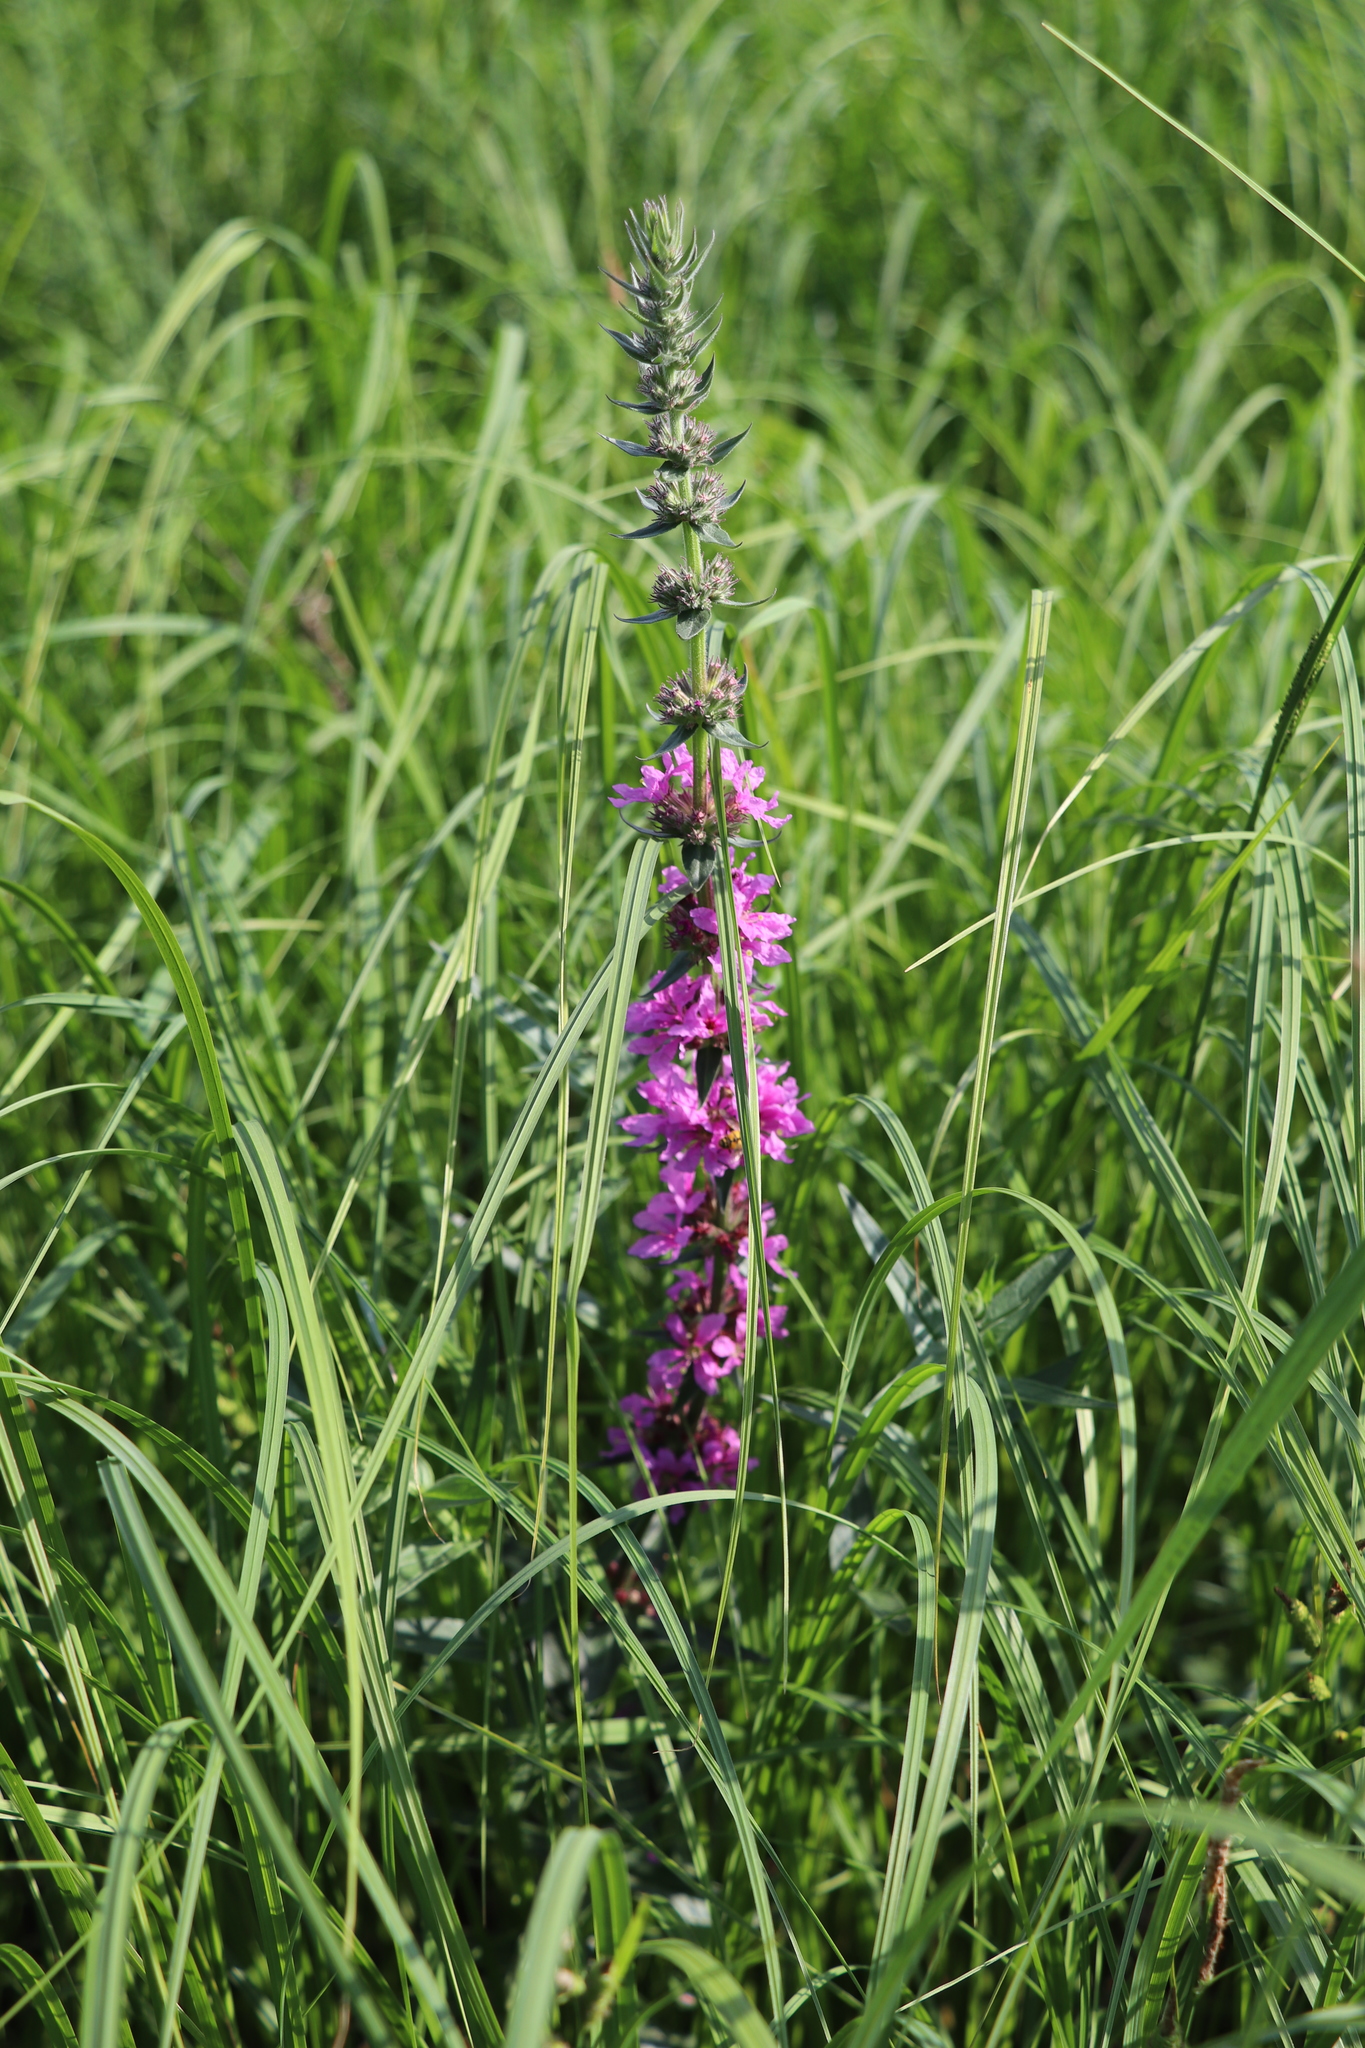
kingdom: Plantae
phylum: Tracheophyta
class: Magnoliopsida
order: Myrtales
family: Lythraceae
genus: Lythrum
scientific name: Lythrum salicaria
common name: Purple loosestrife
